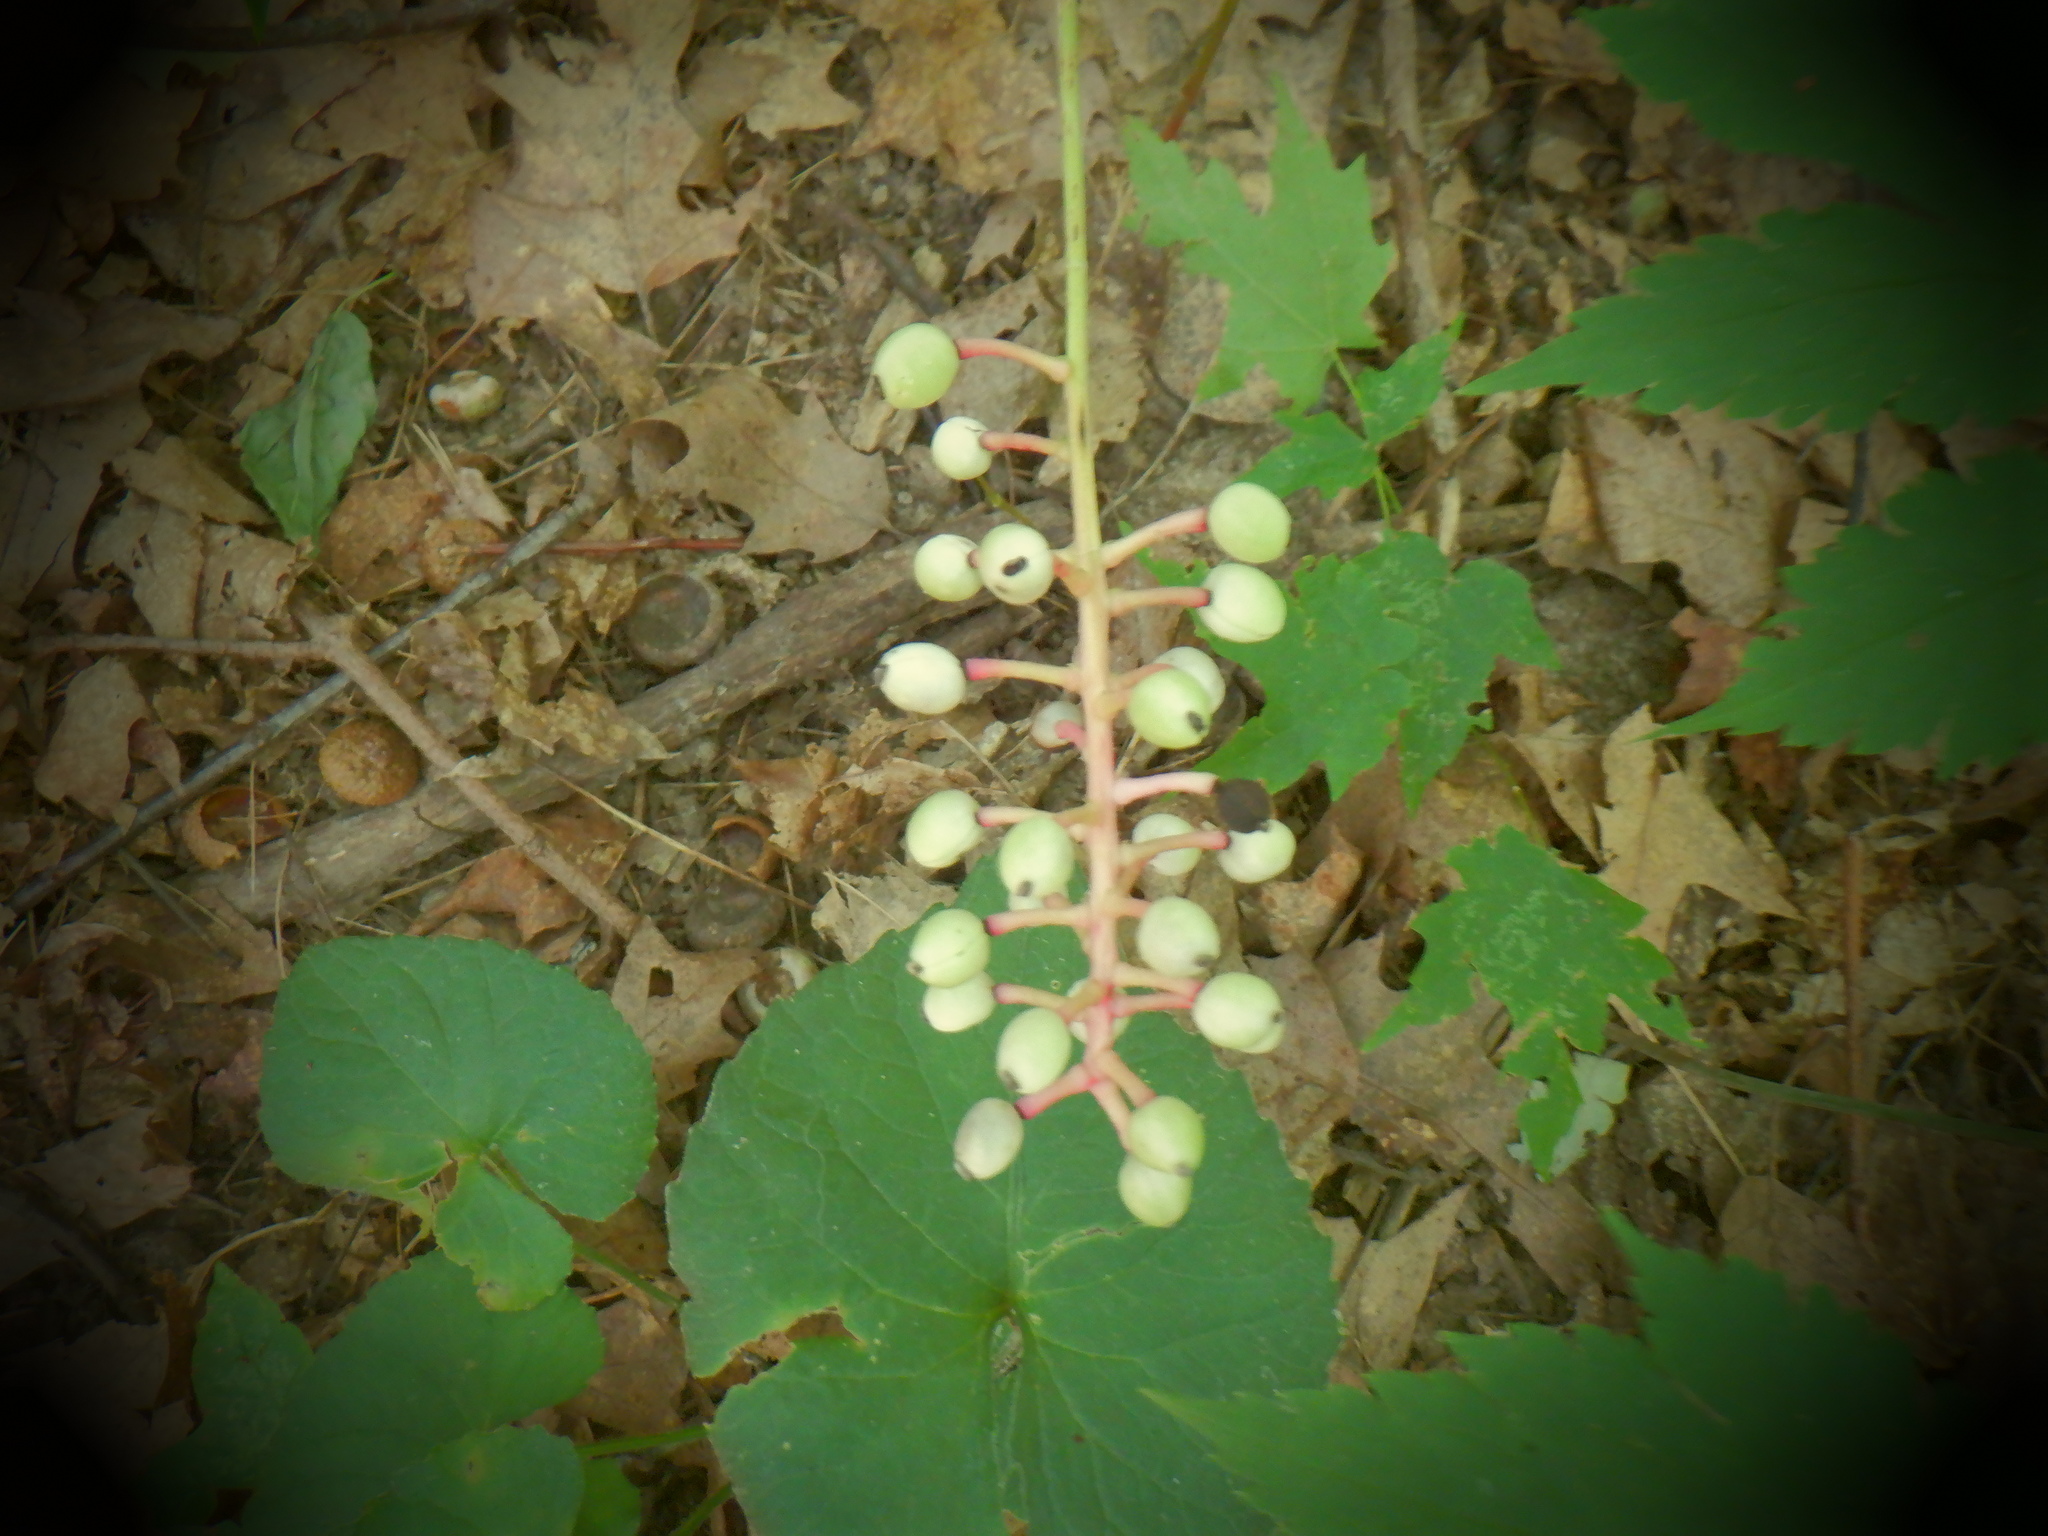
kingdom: Plantae
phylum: Tracheophyta
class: Magnoliopsida
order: Ranunculales
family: Ranunculaceae
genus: Actaea
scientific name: Actaea pachypoda
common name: Doll's-eyes
